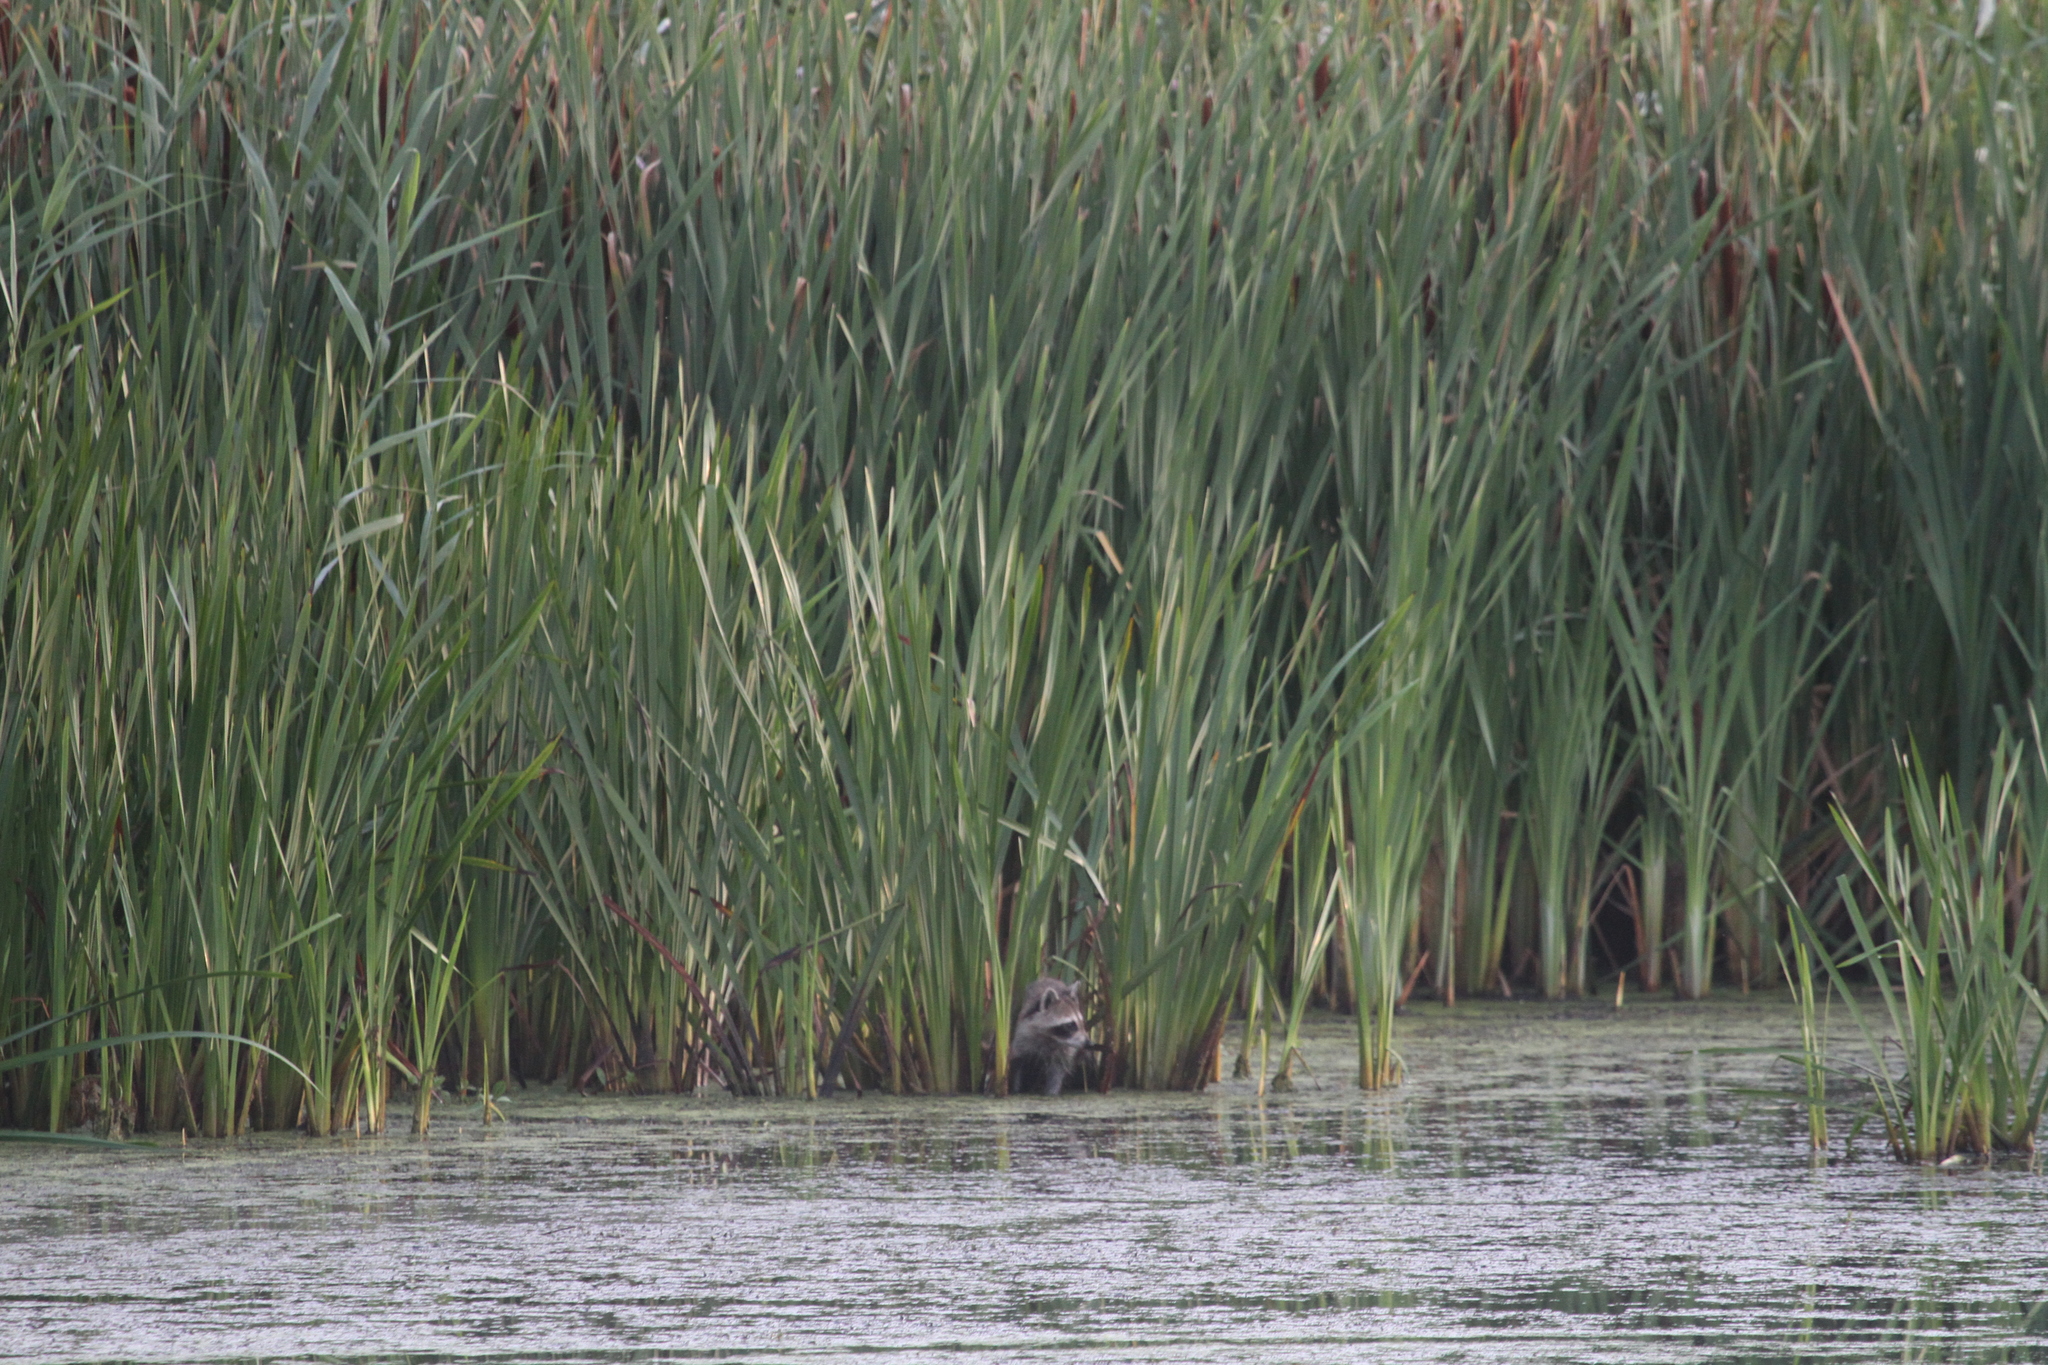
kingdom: Animalia
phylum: Chordata
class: Mammalia
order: Carnivora
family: Procyonidae
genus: Procyon
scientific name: Procyon lotor
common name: Raccoon
